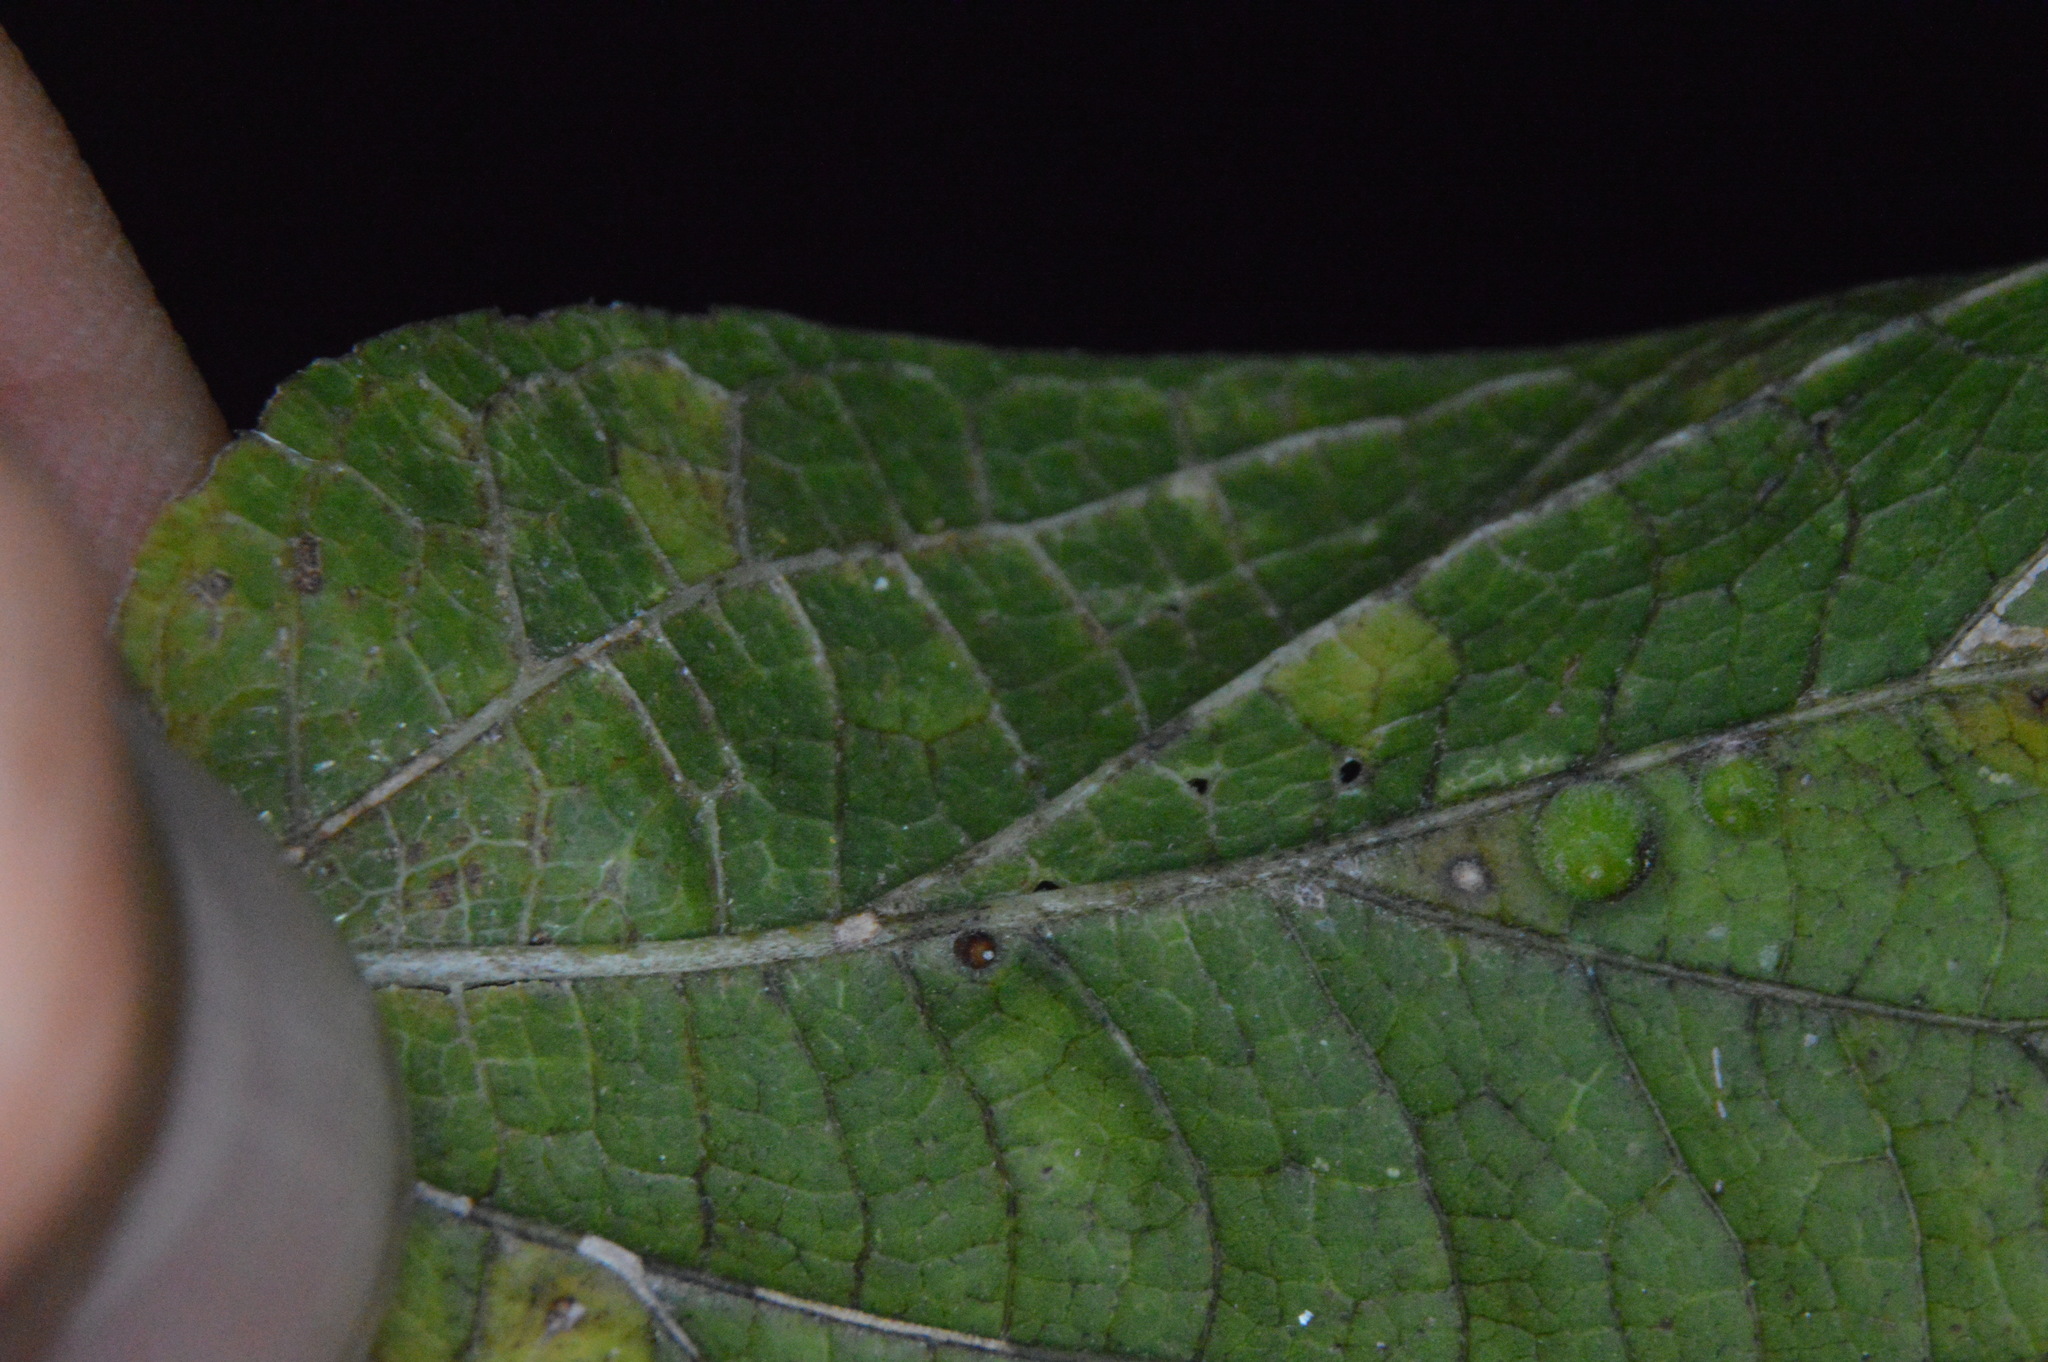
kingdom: Animalia
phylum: Arthropoda
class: Insecta
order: Diptera
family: Cecidomyiidae
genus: Celticecis
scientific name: Celticecis cupiformis
